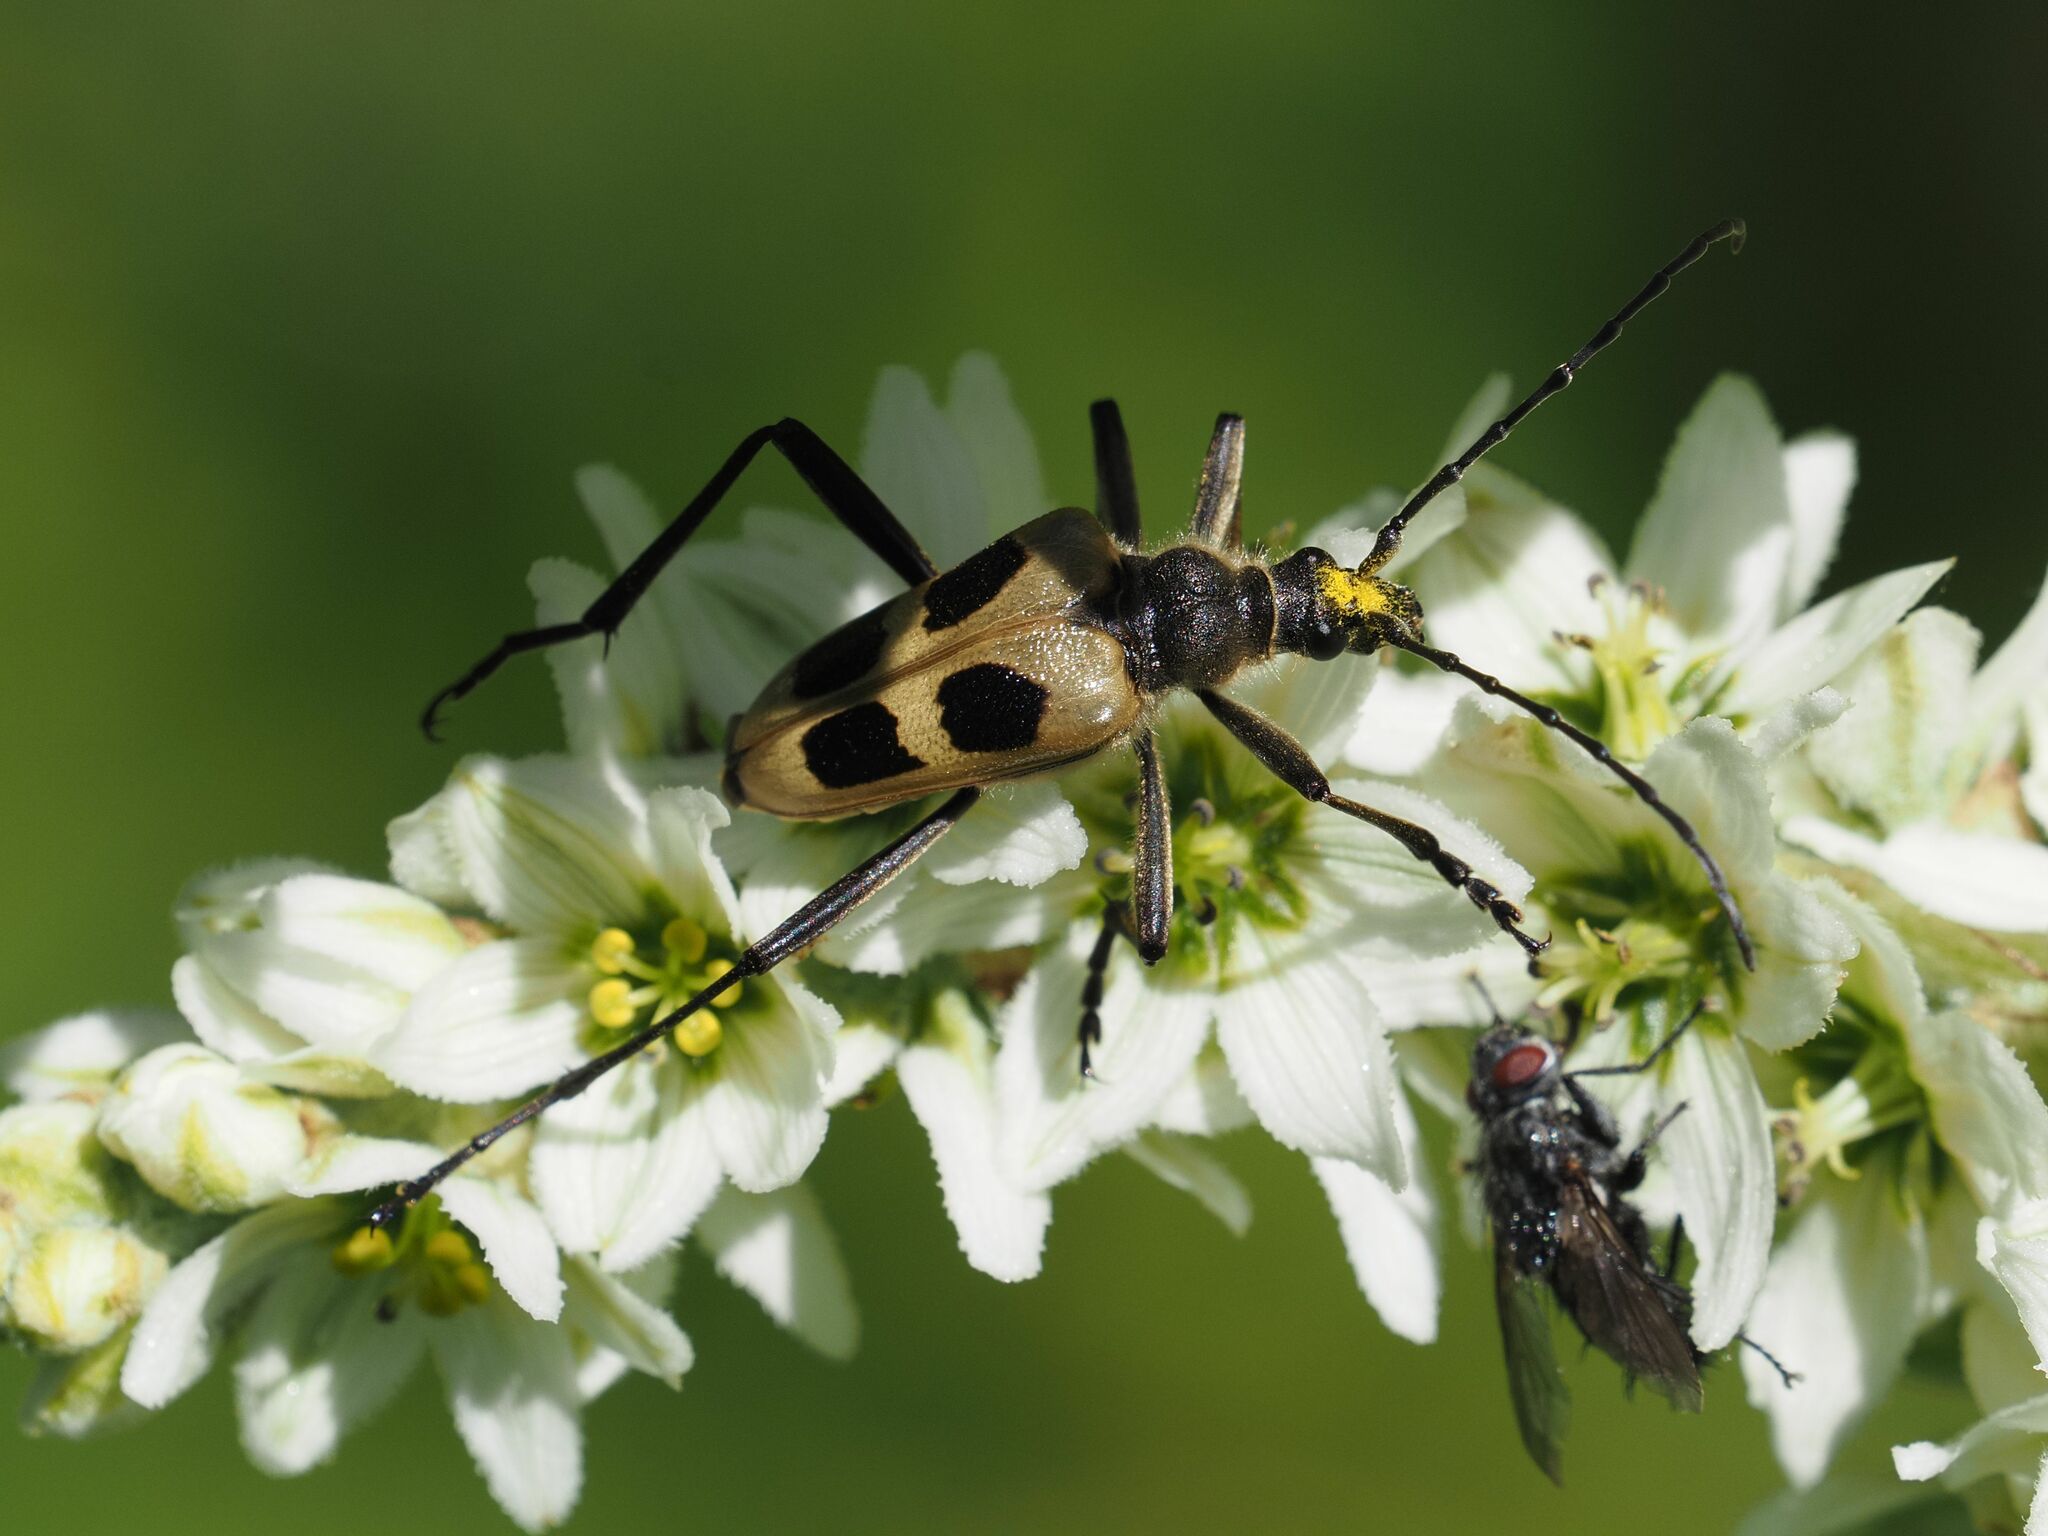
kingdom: Animalia
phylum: Arthropoda
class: Insecta
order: Coleoptera
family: Cerambycidae
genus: Pachyta
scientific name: Pachyta quadrimaculata
